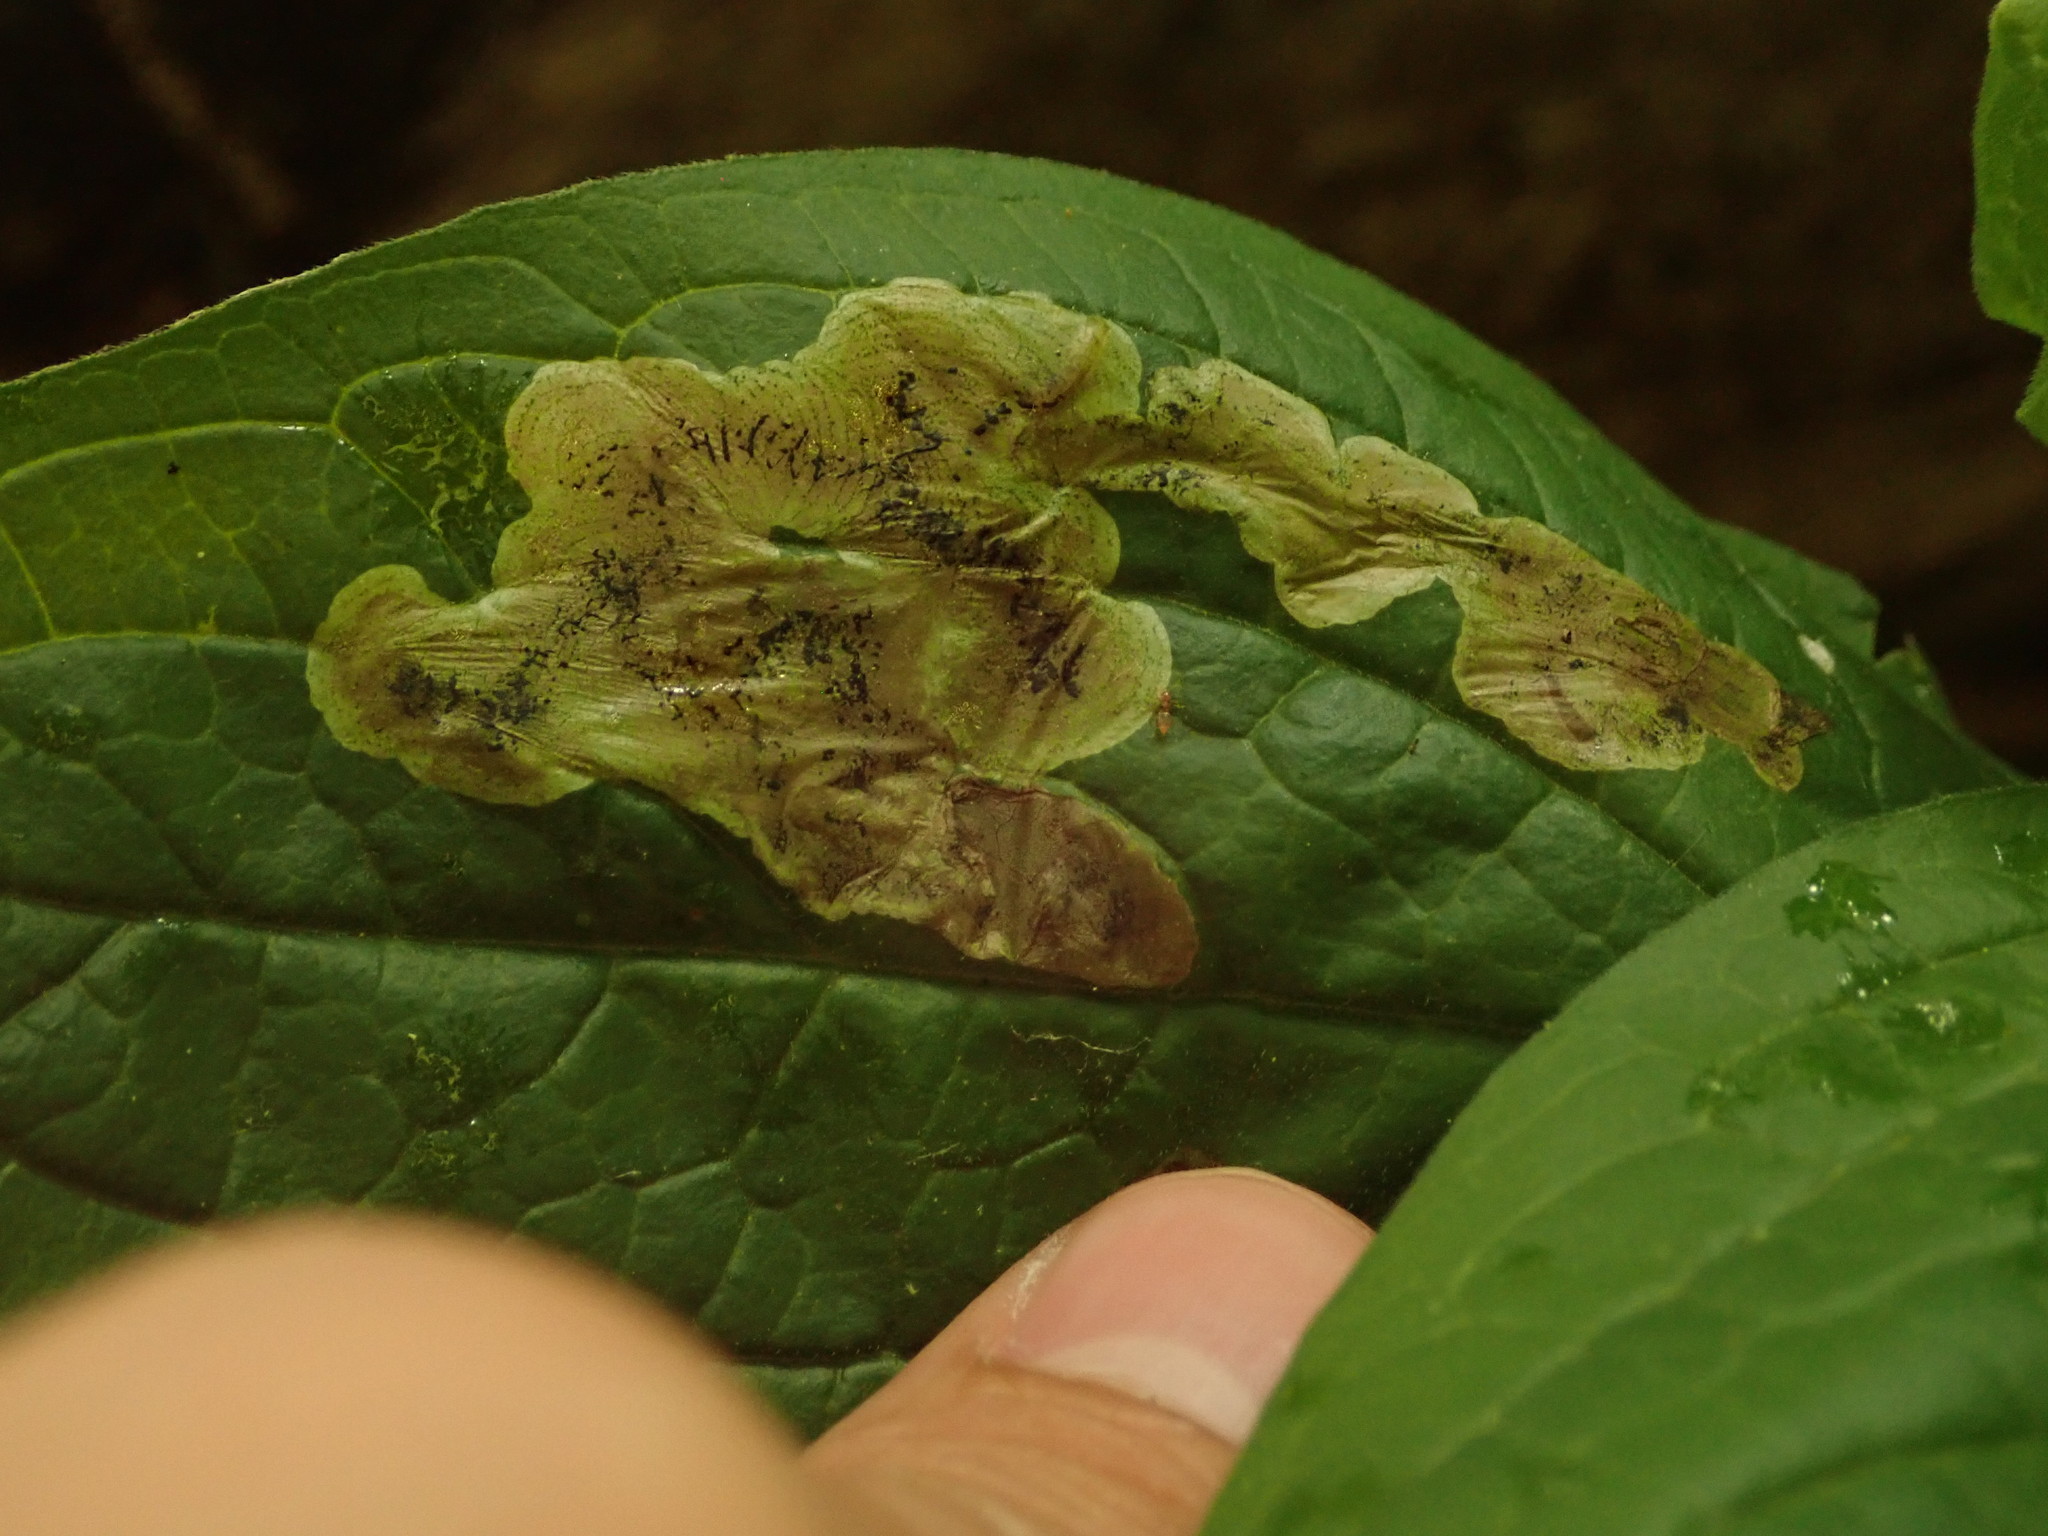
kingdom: Animalia
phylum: Arthropoda
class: Insecta
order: Diptera
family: Agromyzidae
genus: Agromyza
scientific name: Agromyza canadensis
